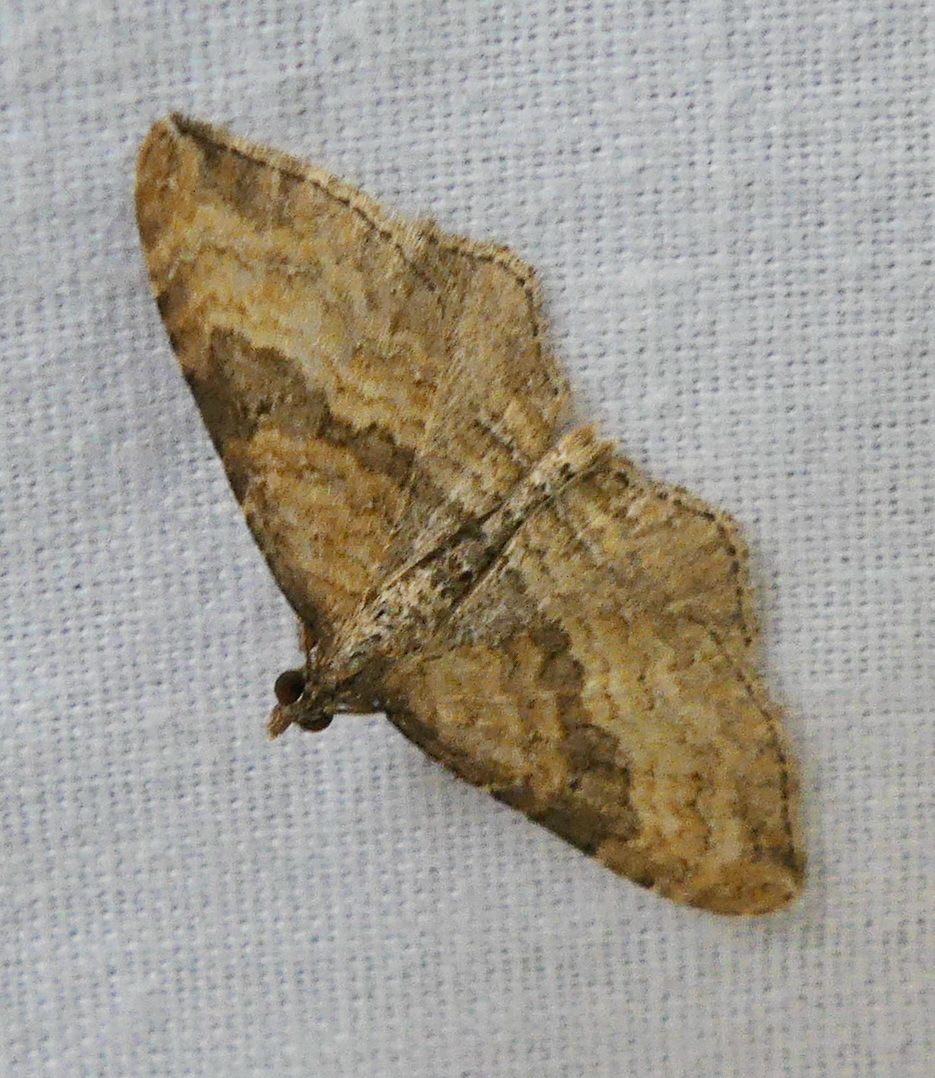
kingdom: Animalia
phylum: Arthropoda
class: Insecta
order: Lepidoptera
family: Geometridae
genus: Orthonama
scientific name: Orthonama obstipata
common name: The gem
